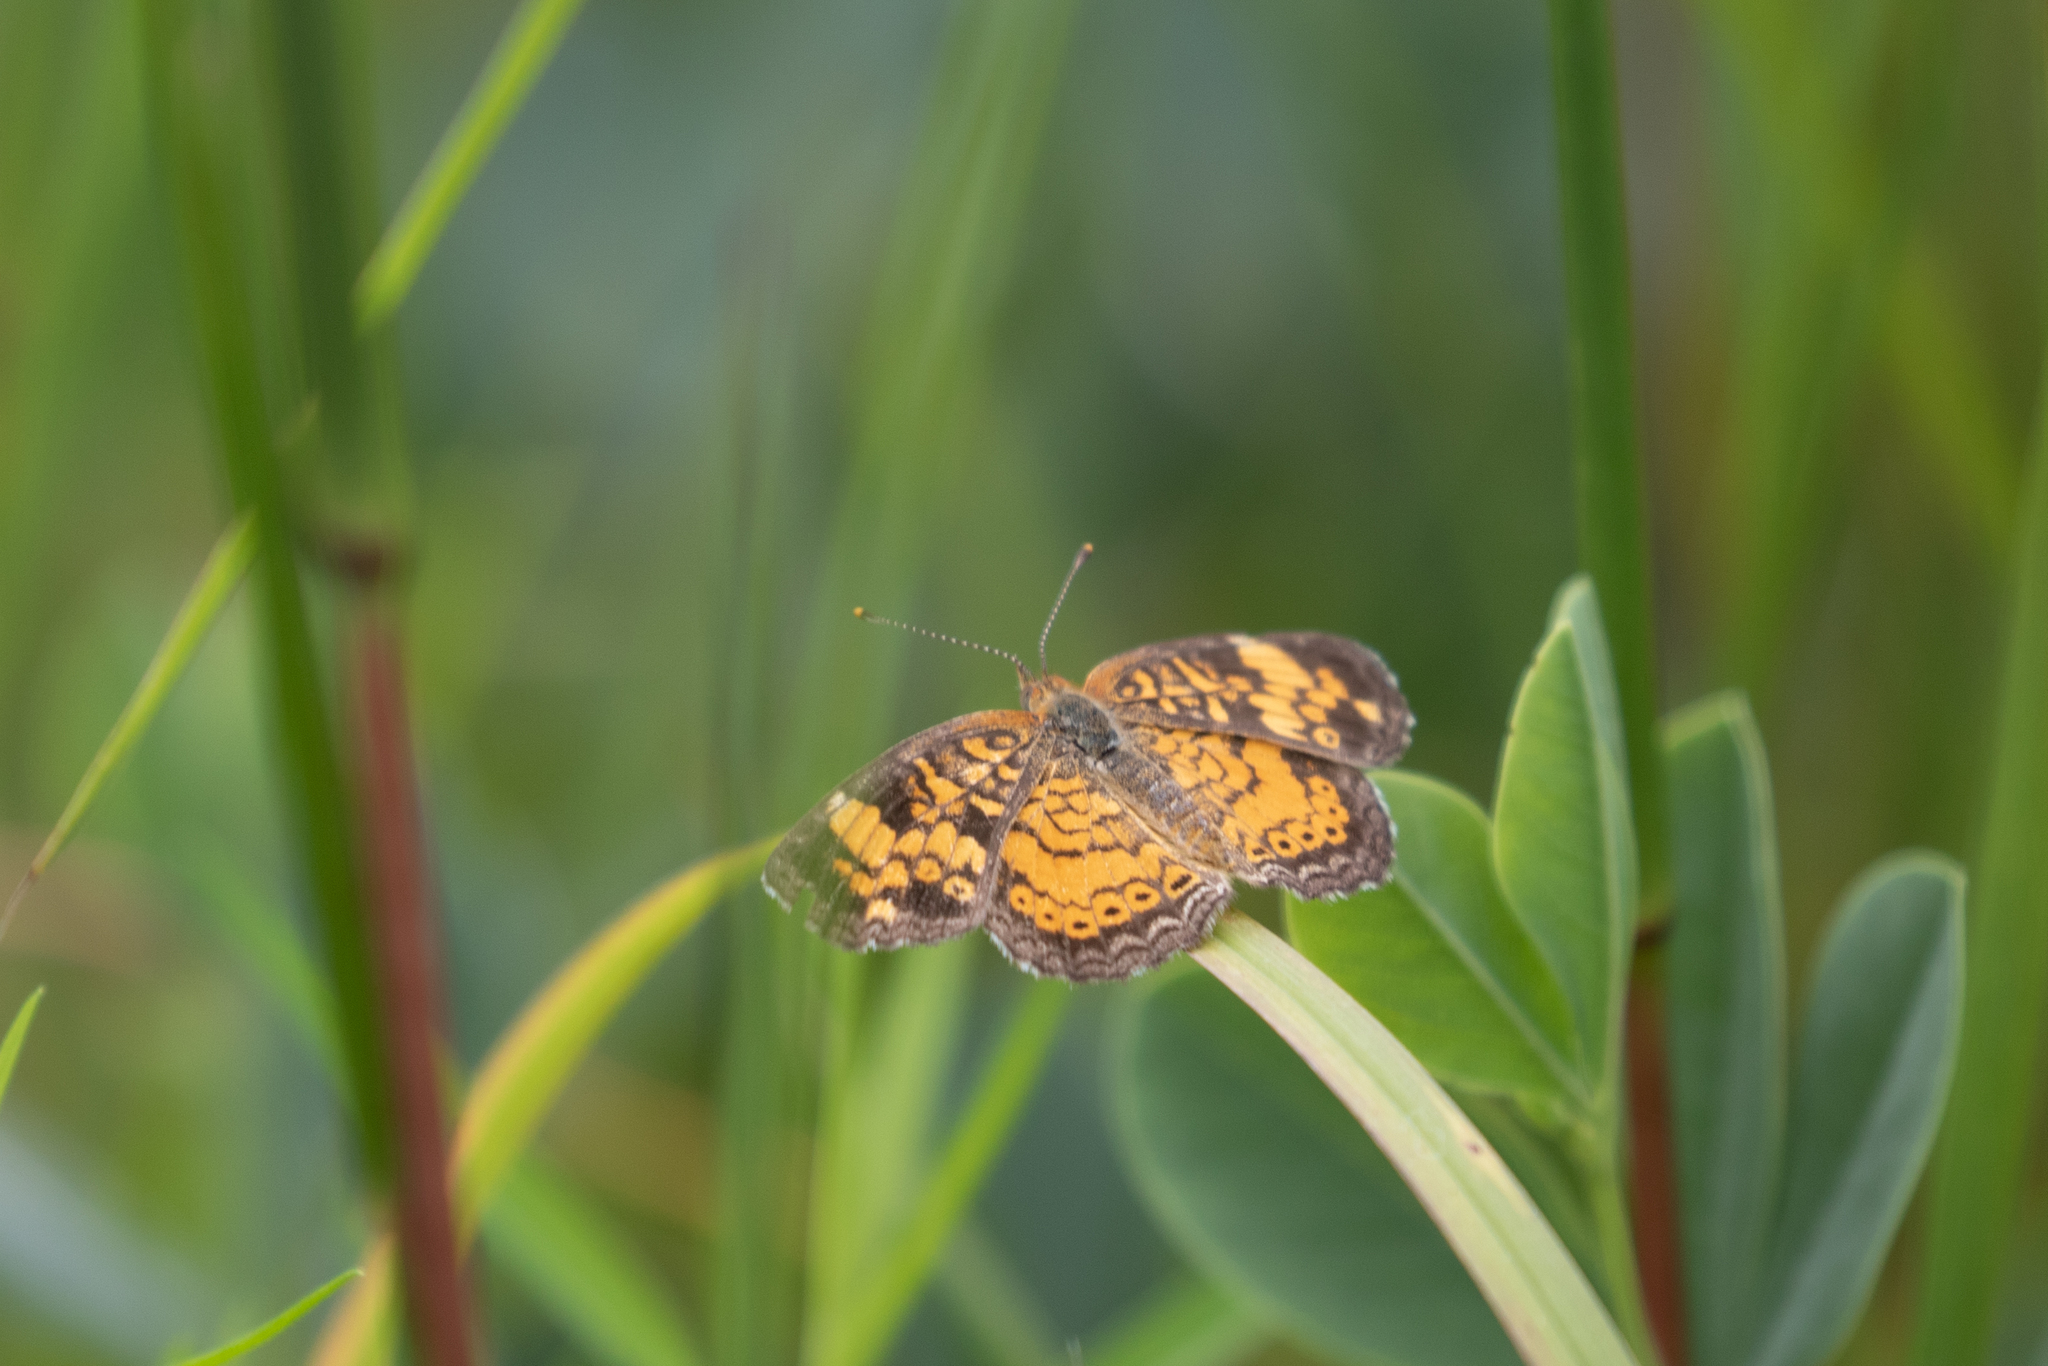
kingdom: Animalia
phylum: Arthropoda
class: Insecta
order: Lepidoptera
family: Nymphalidae
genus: Phyciodes
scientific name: Phyciodes tharos
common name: Pearl crescent
